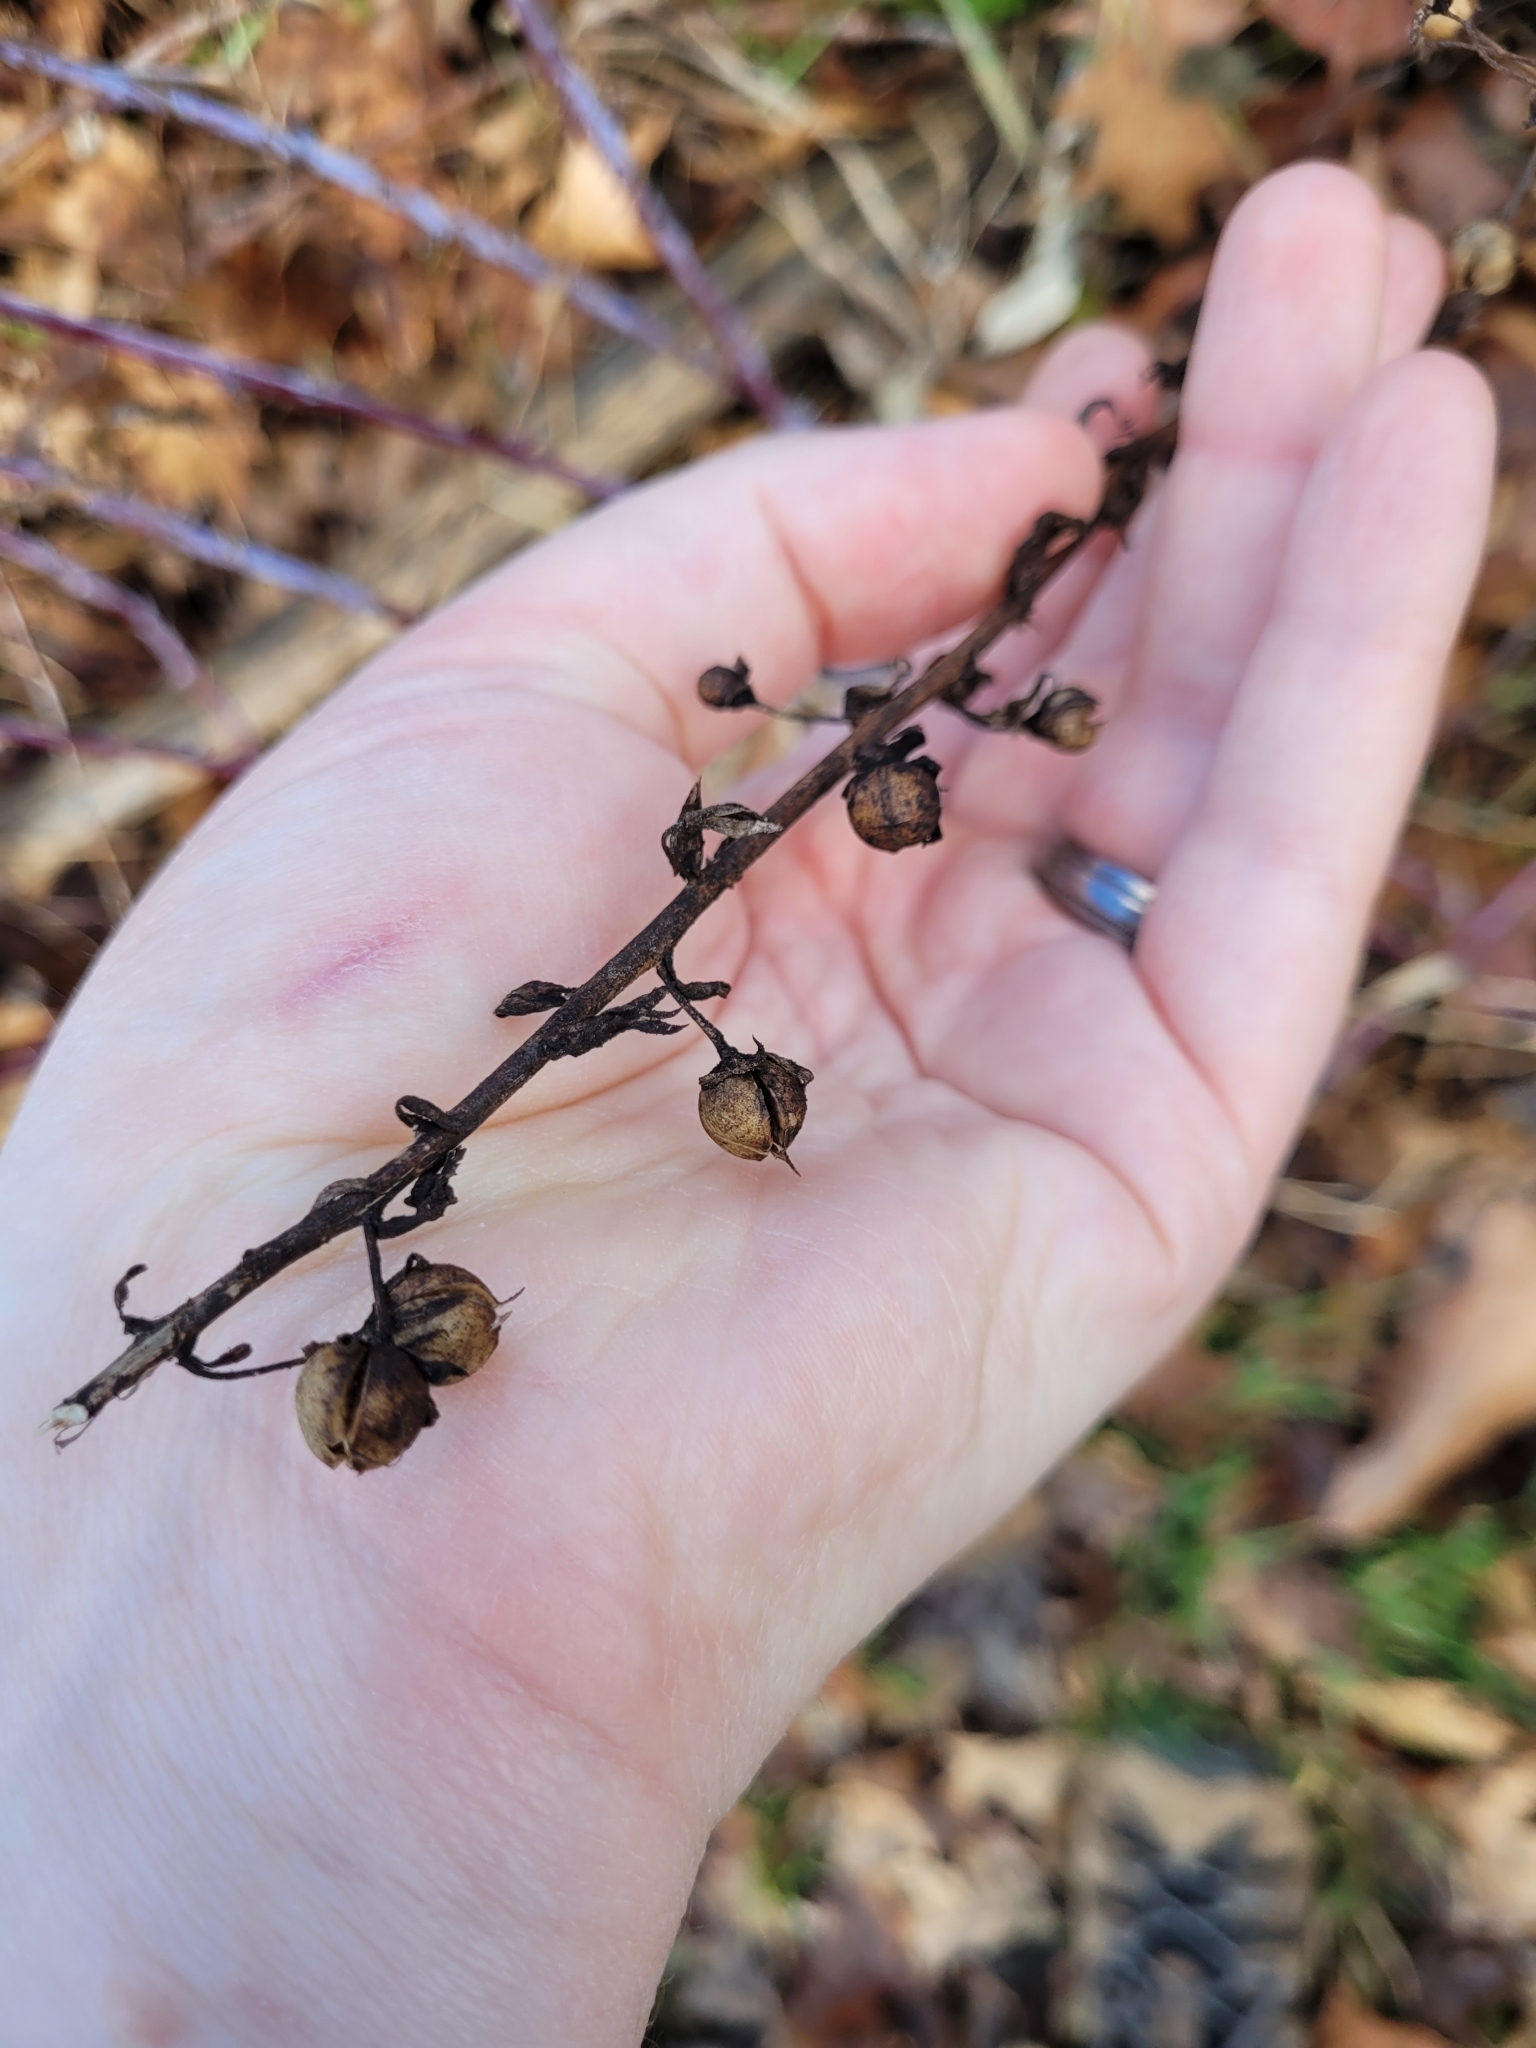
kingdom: Plantae
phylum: Tracheophyta
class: Magnoliopsida
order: Lamiales
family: Scrophulariaceae
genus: Verbascum
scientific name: Verbascum blattaria
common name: Moth mullein
